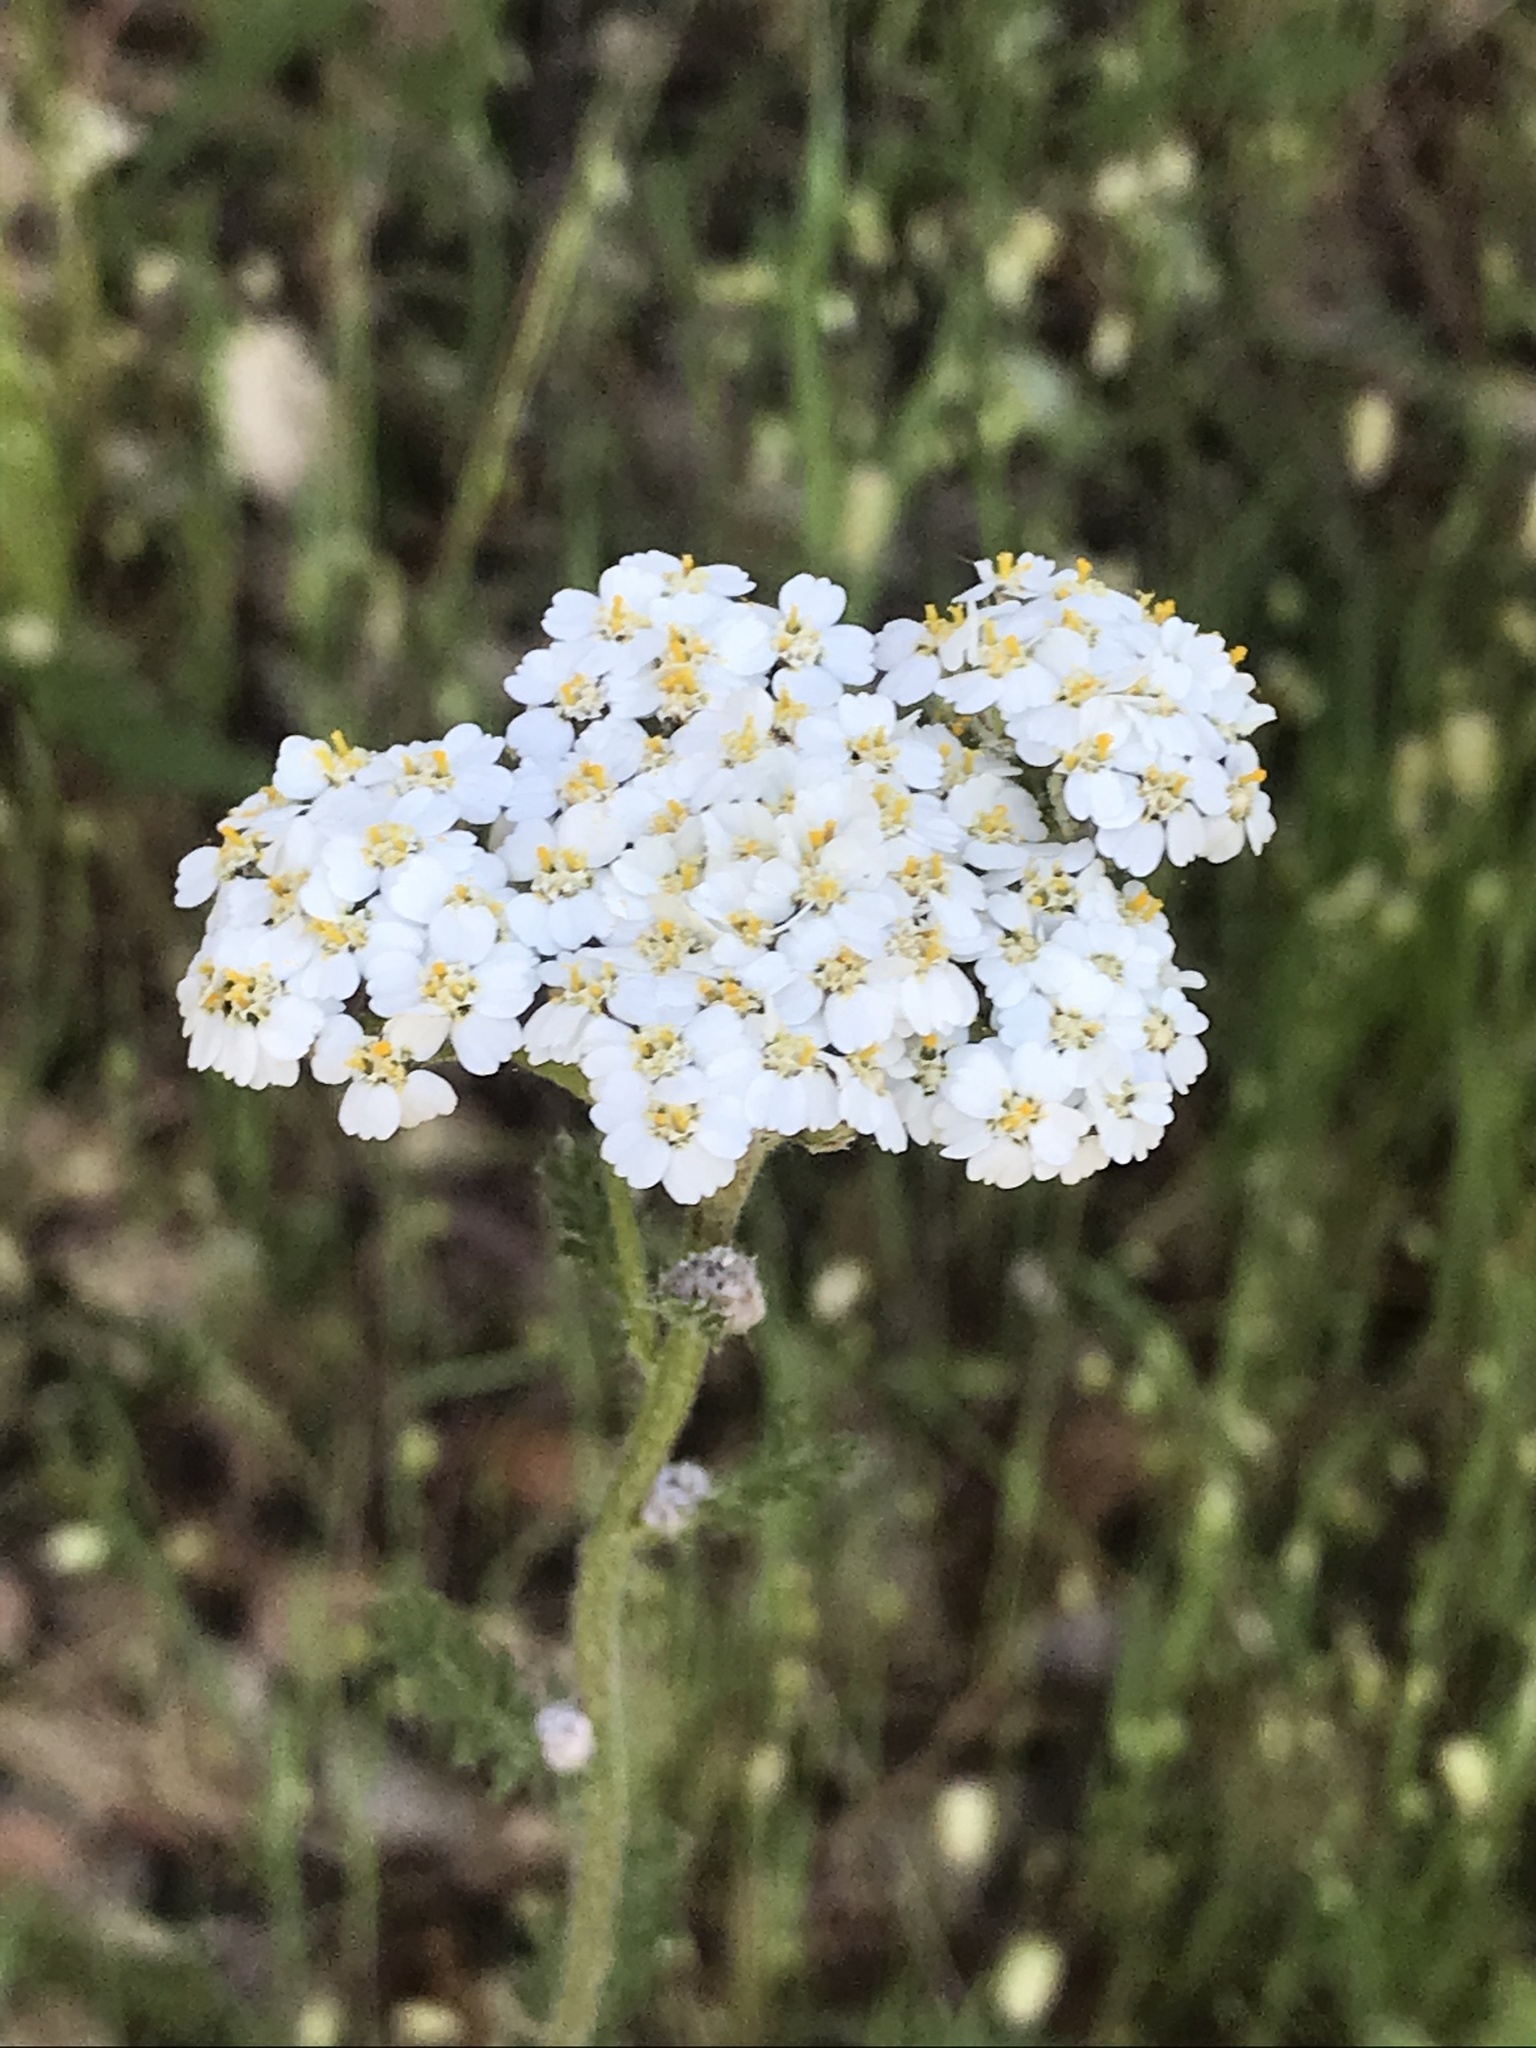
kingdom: Plantae
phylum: Tracheophyta
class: Magnoliopsida
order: Asterales
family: Asteraceae
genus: Achillea
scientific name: Achillea millefolium
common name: Yarrow
